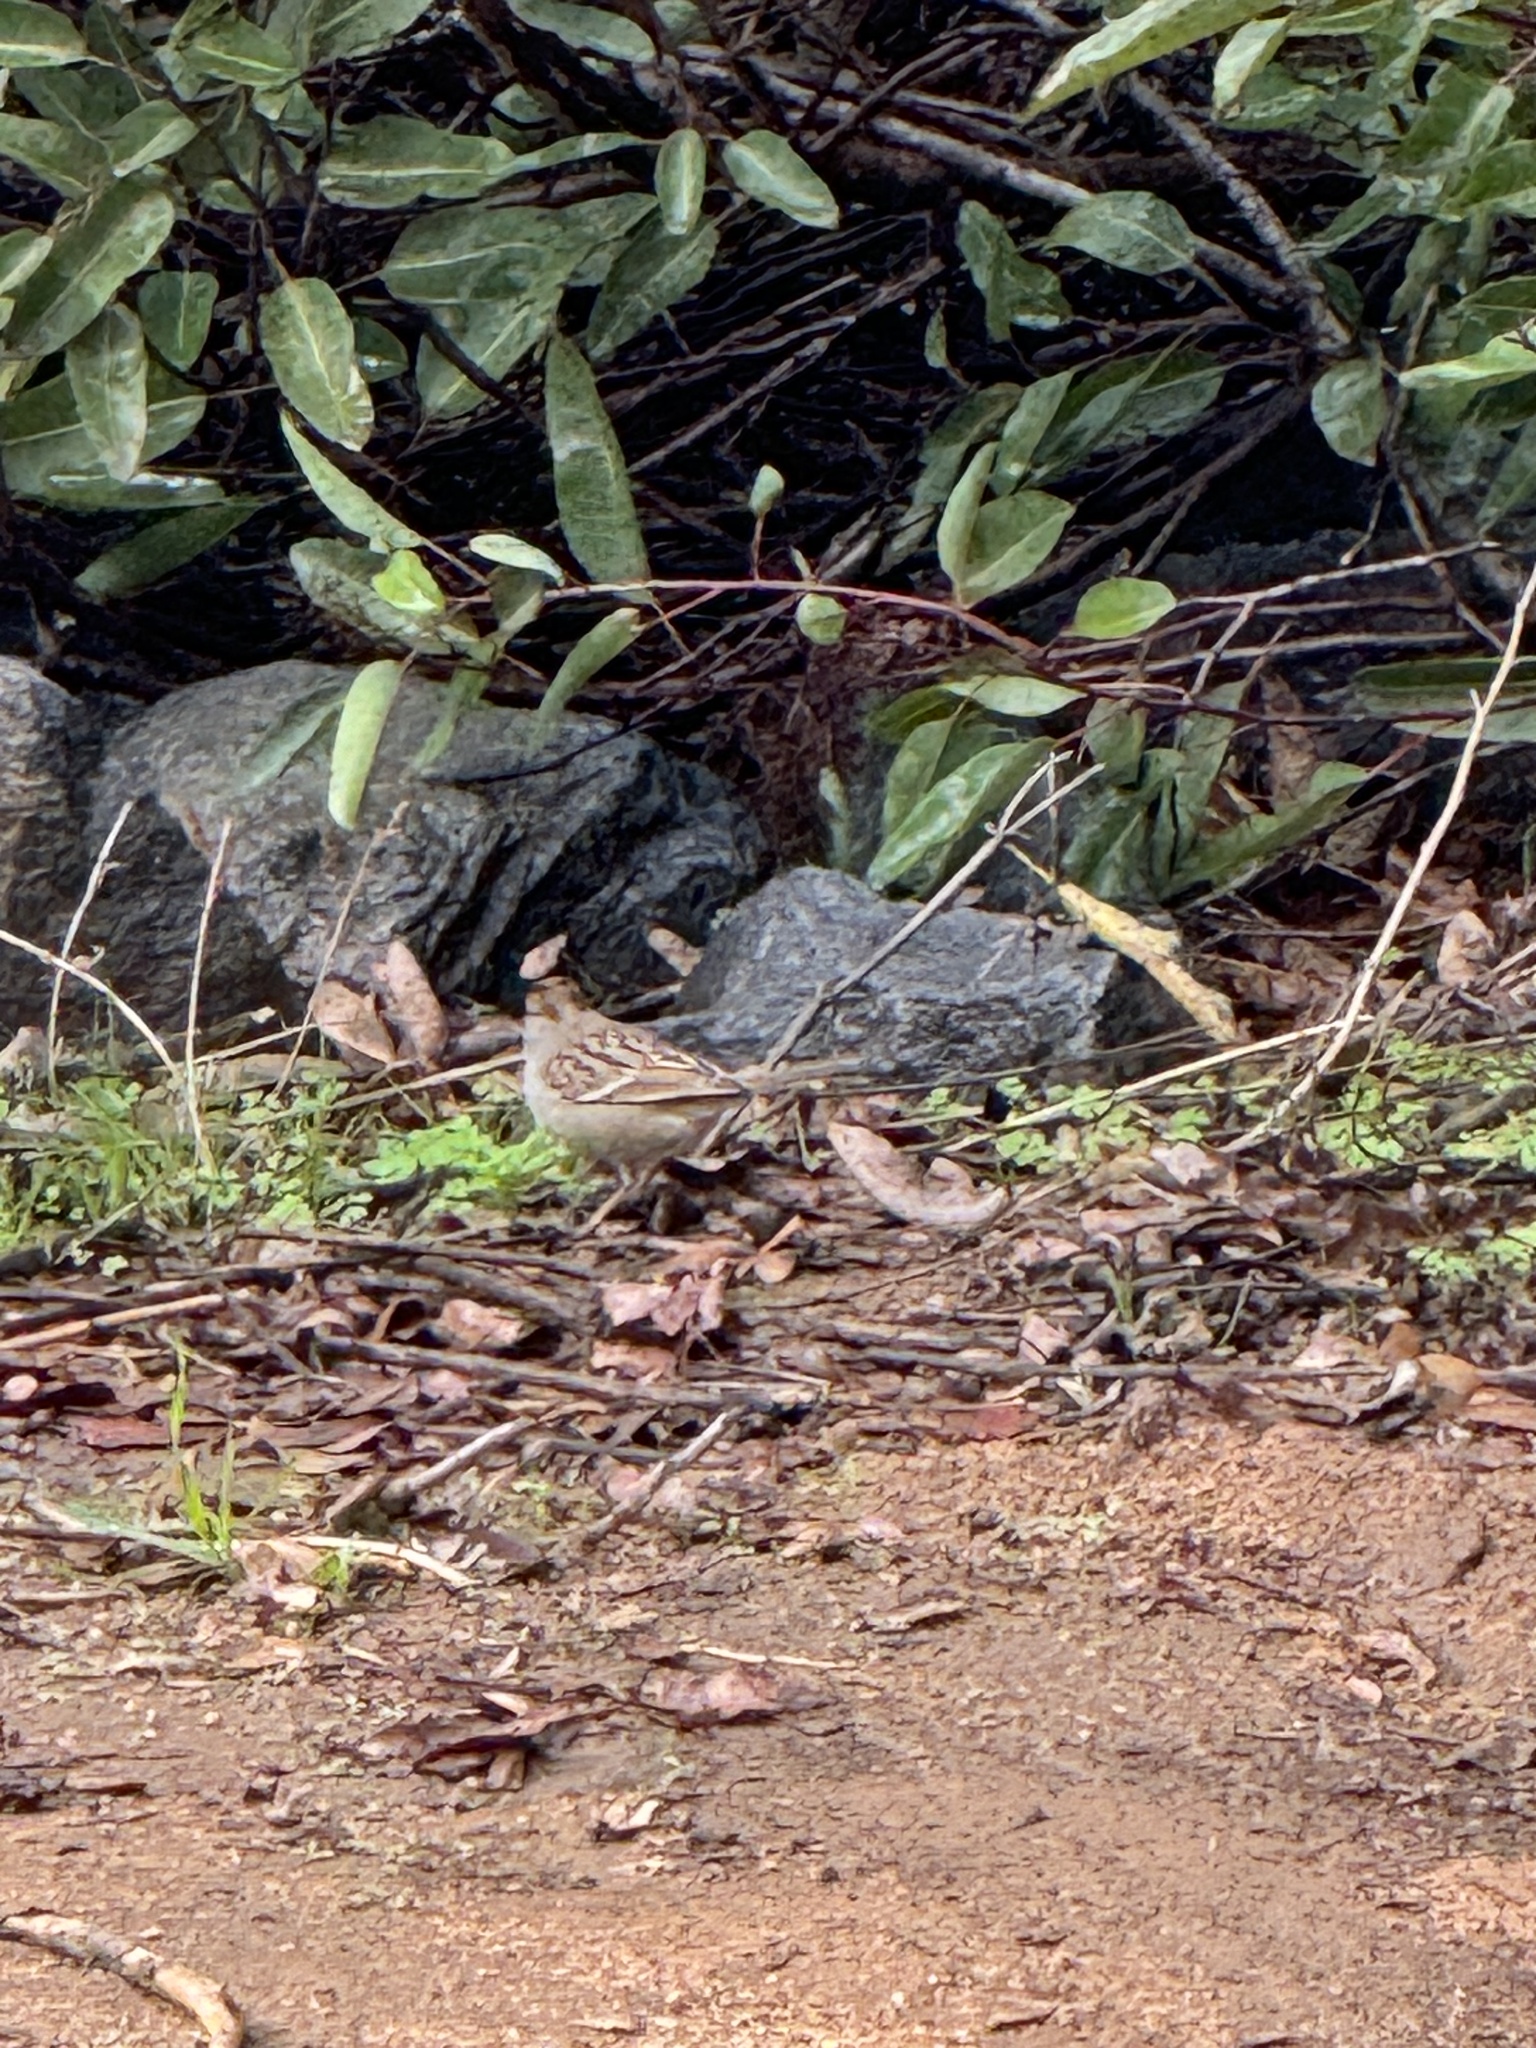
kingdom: Animalia
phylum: Chordata
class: Aves
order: Passeriformes
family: Passerellidae
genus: Zonotrichia
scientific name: Zonotrichia leucophrys
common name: White-crowned sparrow
